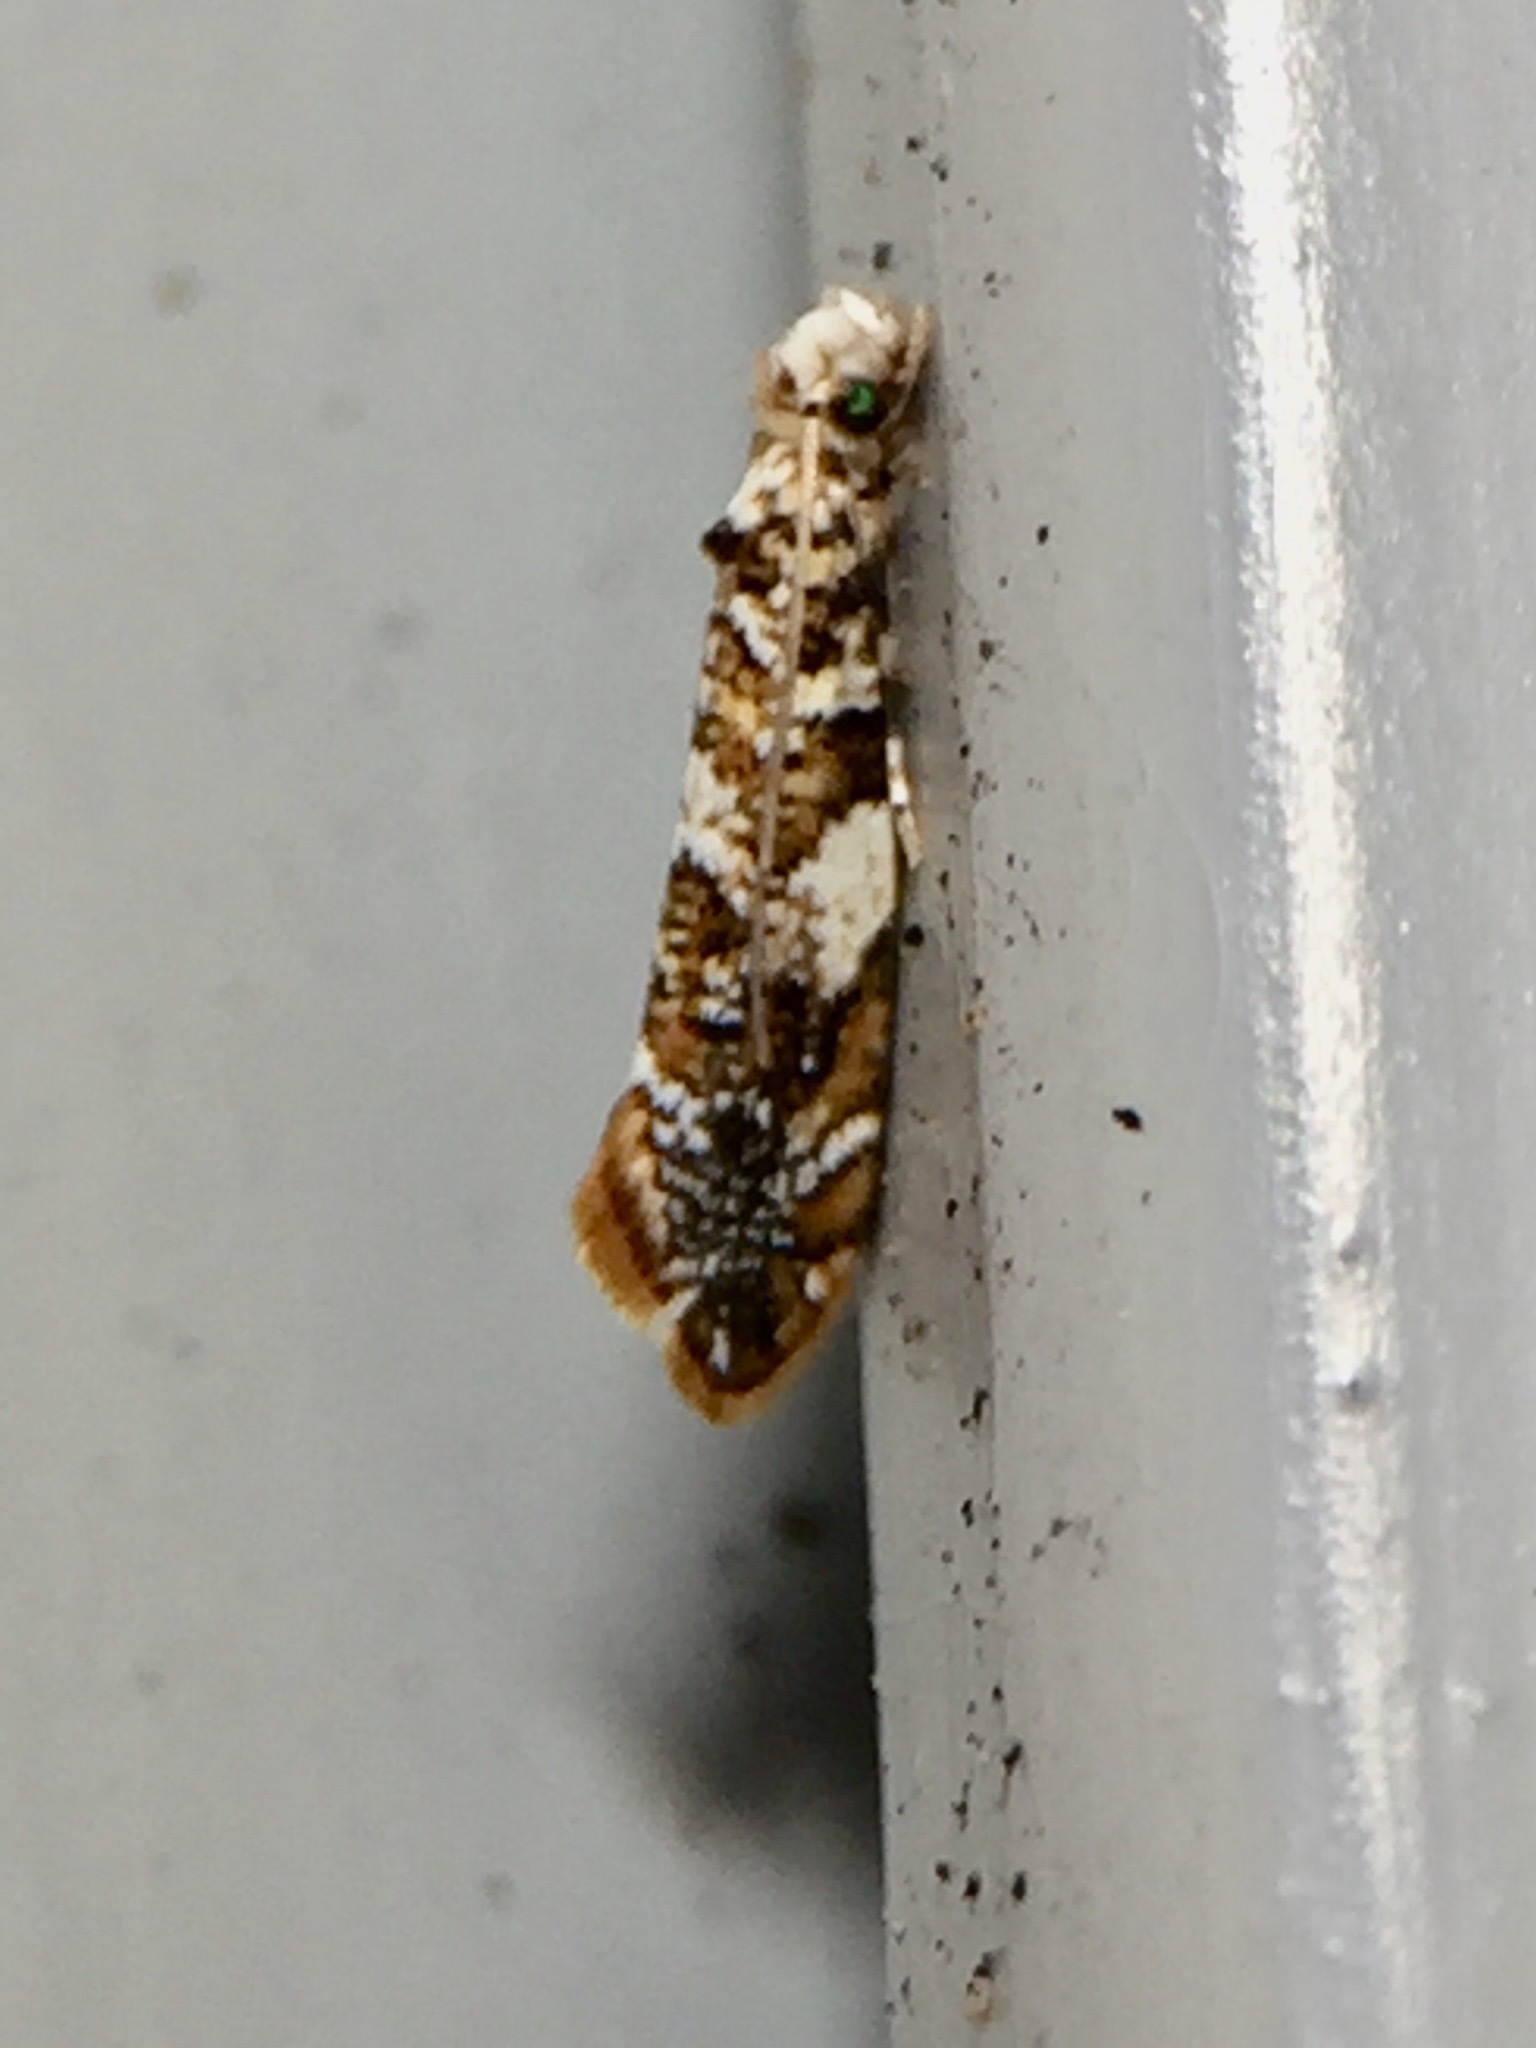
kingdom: Animalia
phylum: Arthropoda
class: Insecta
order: Lepidoptera
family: Tineidae
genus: Eschatotypa
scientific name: Eschatotypa derogatella
